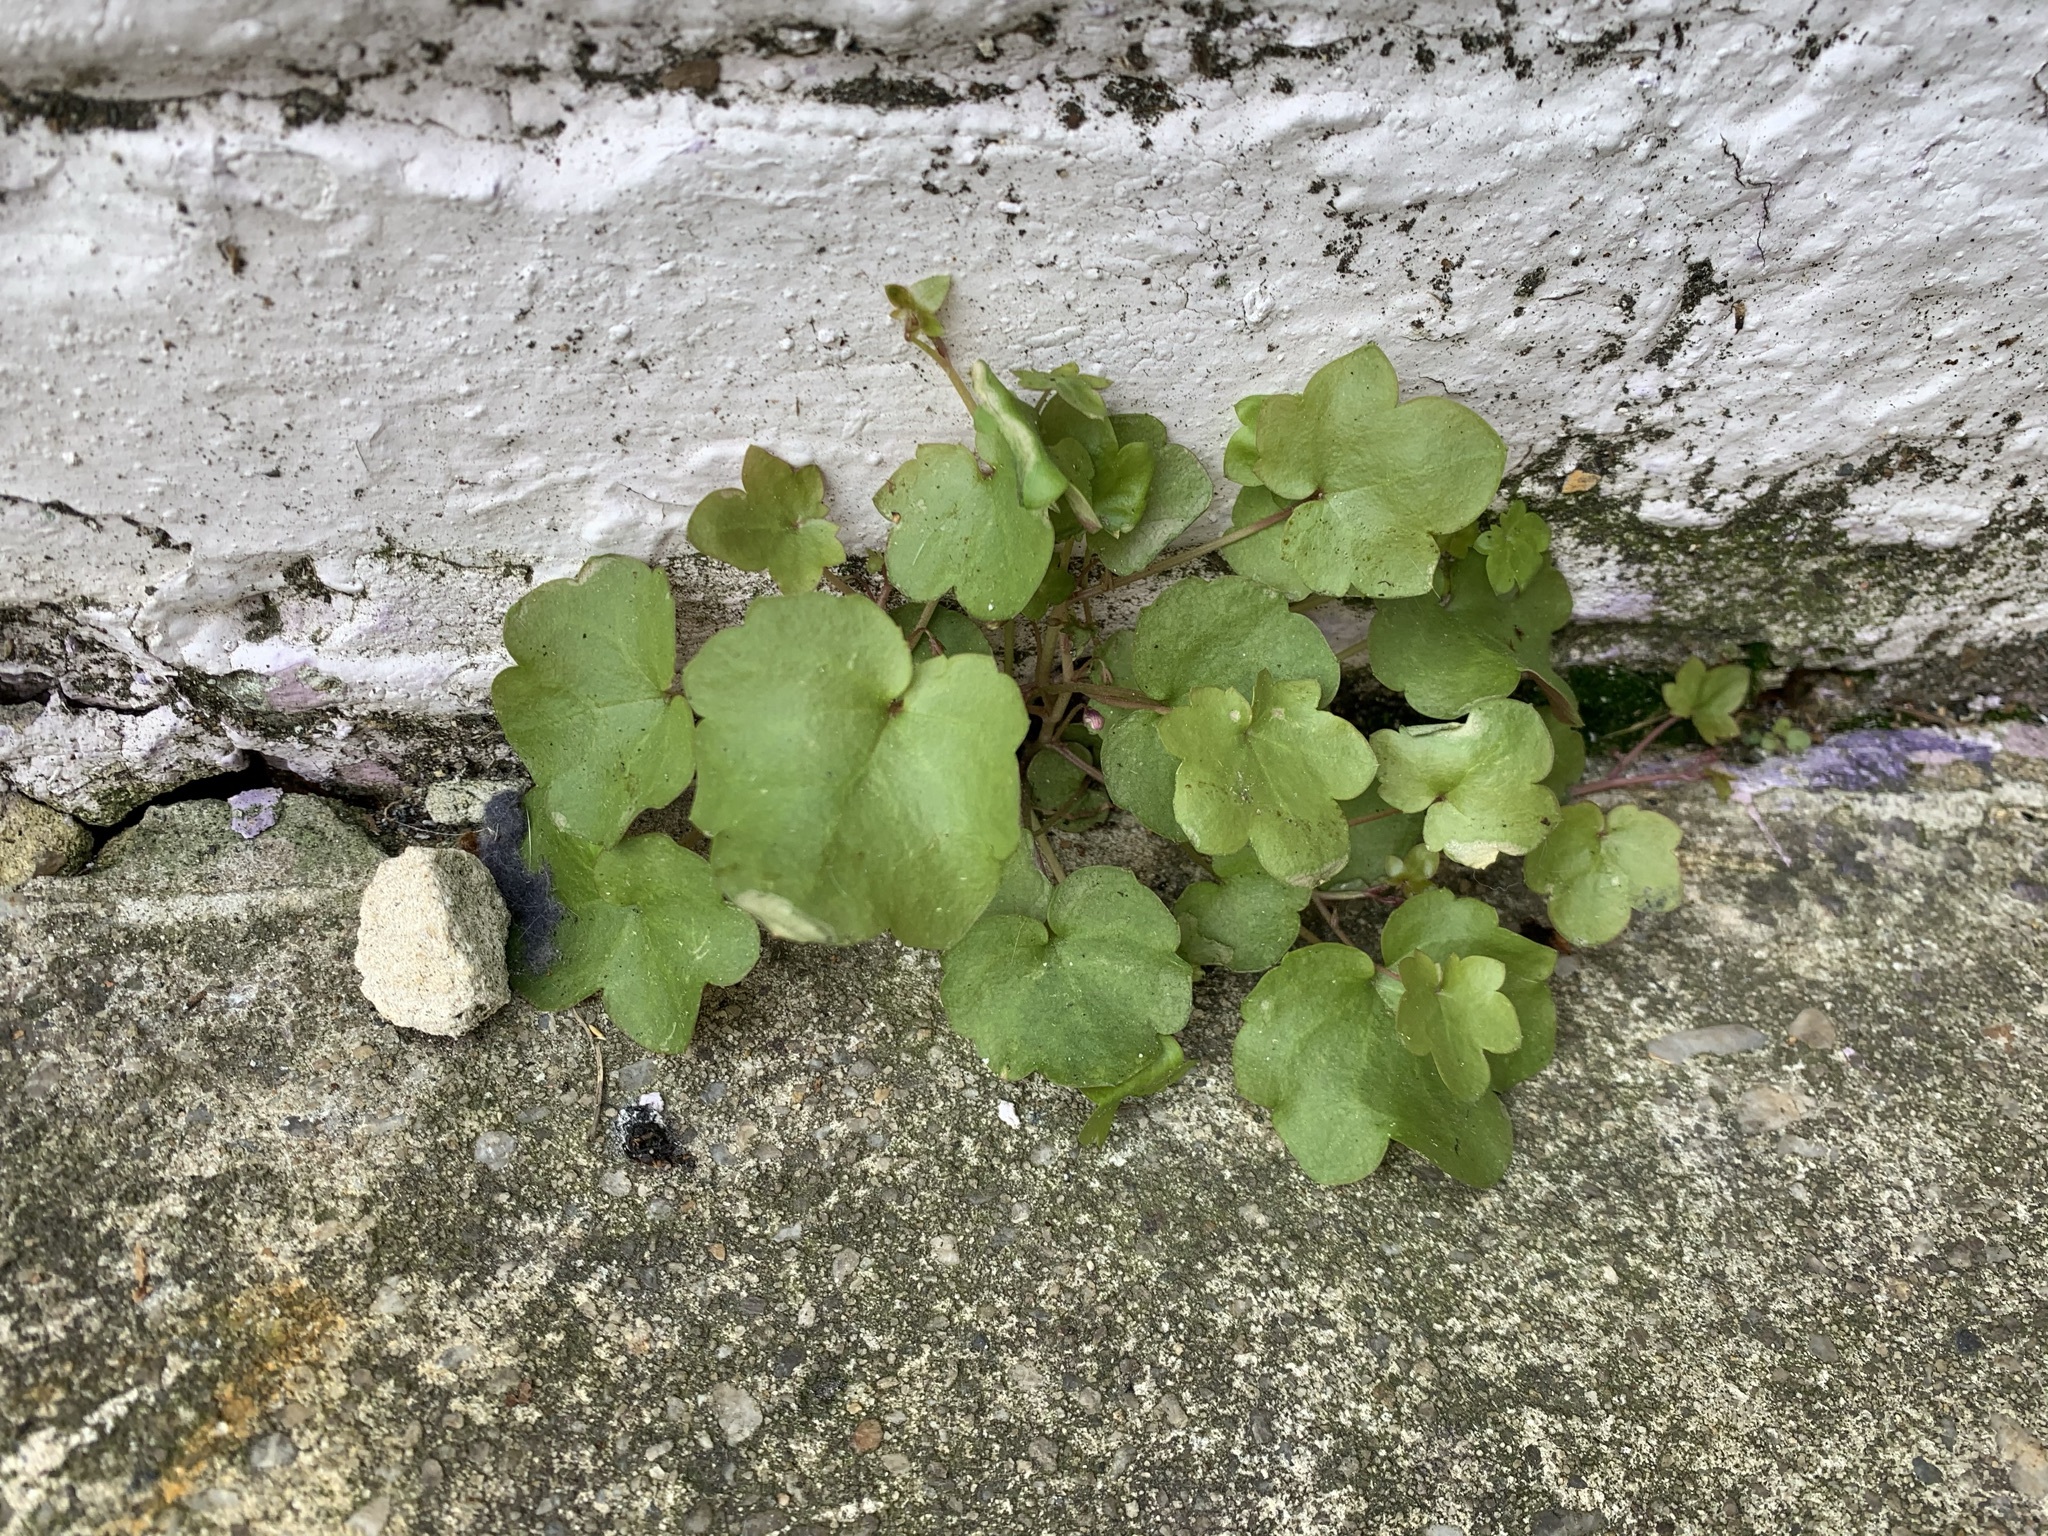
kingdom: Plantae
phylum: Tracheophyta
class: Magnoliopsida
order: Lamiales
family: Plantaginaceae
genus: Cymbalaria
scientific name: Cymbalaria muralis
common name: Ivy-leaved toadflax
